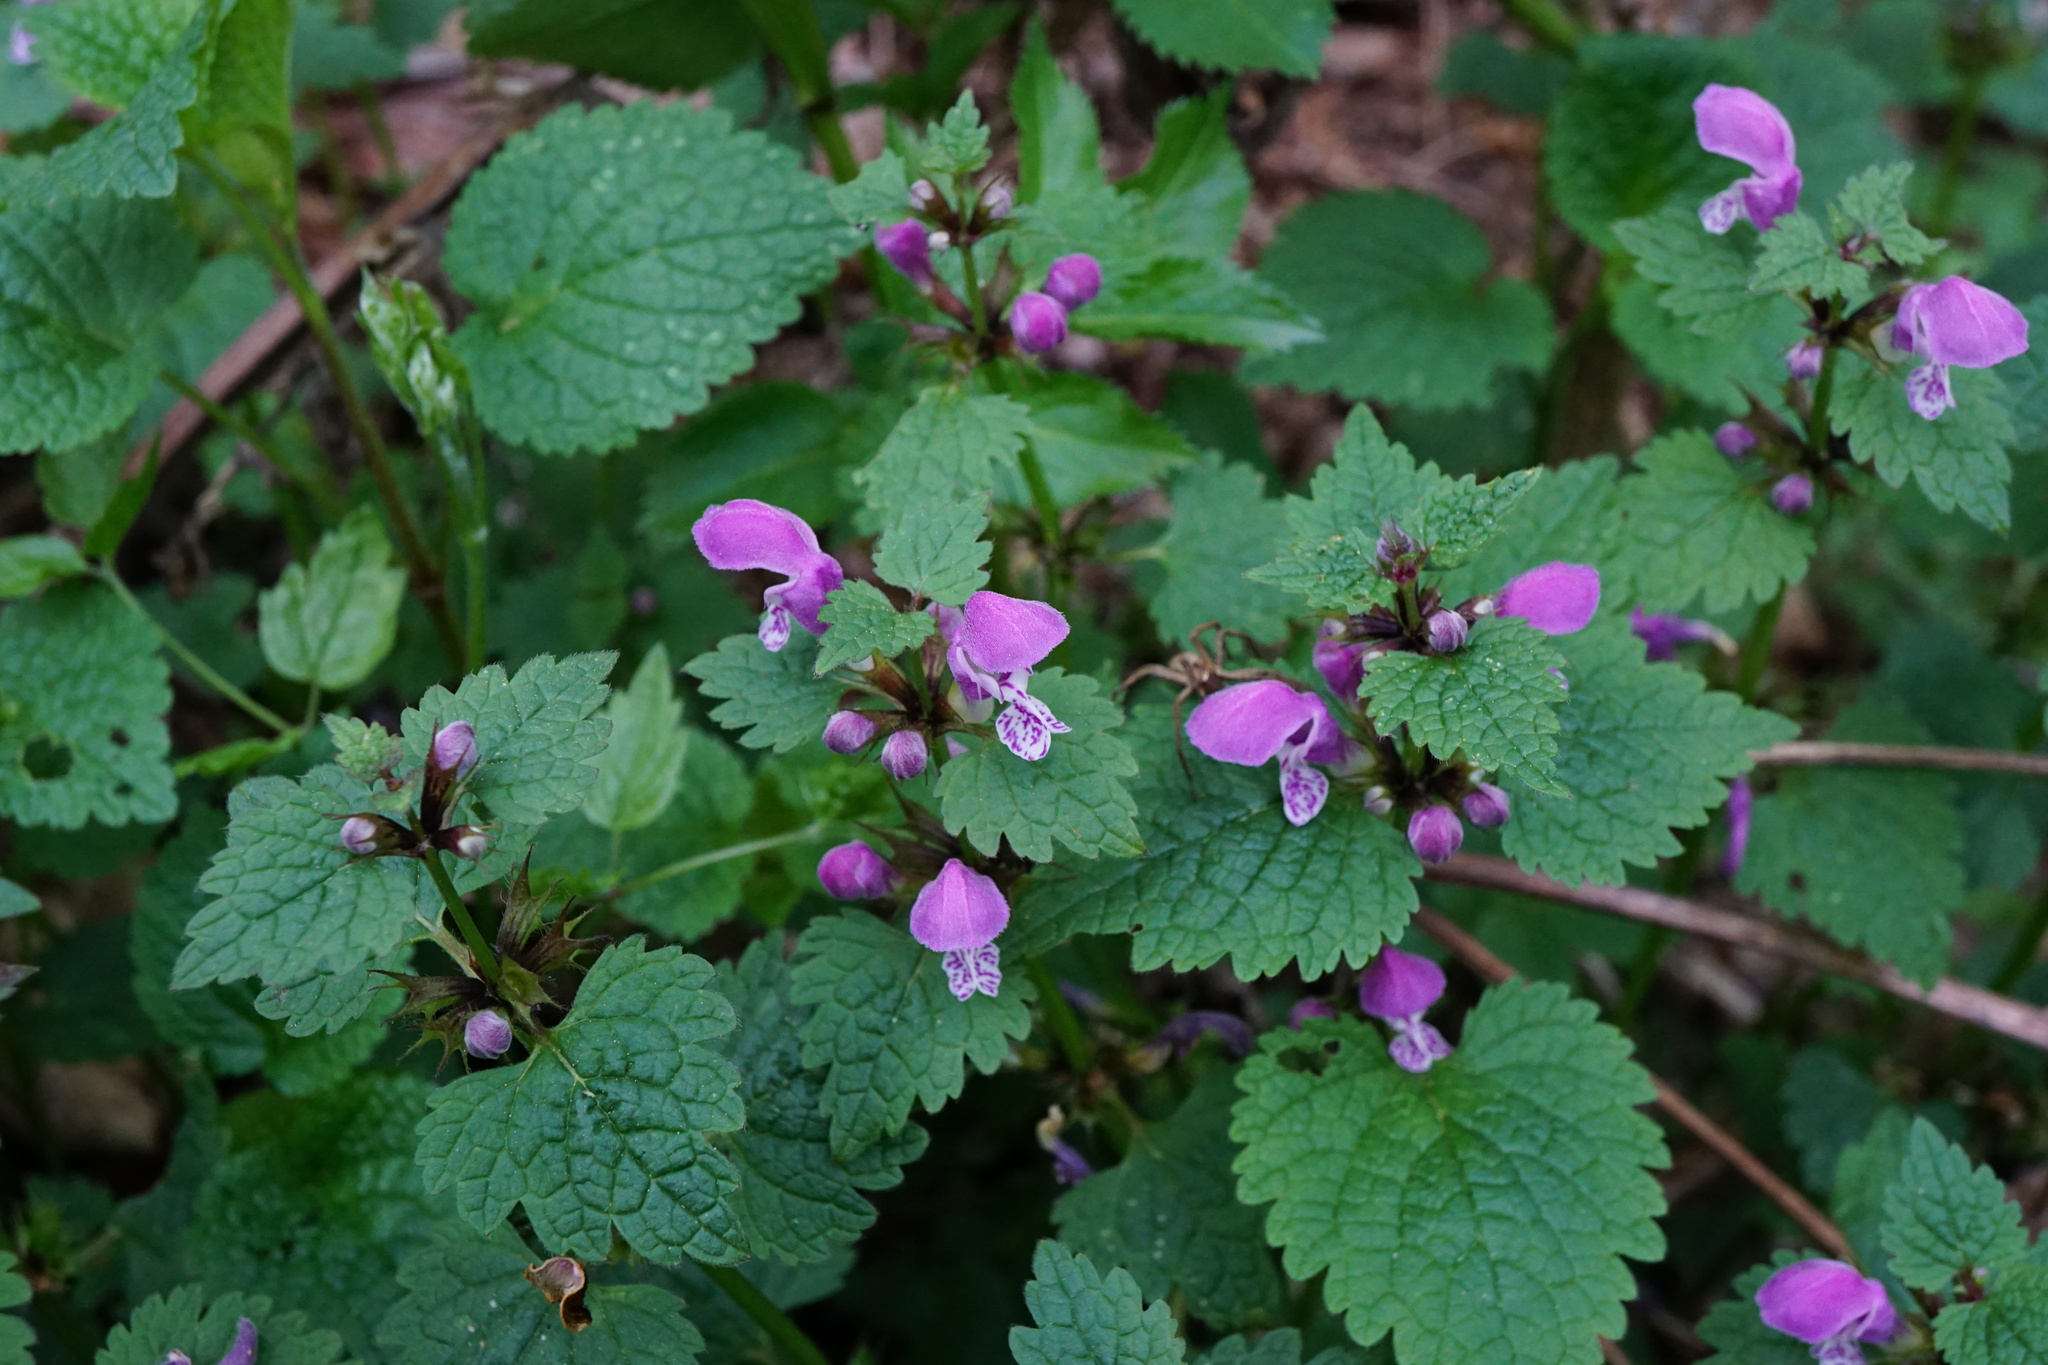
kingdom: Plantae
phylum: Tracheophyta
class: Magnoliopsida
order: Lamiales
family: Lamiaceae
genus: Lamium
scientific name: Lamium maculatum
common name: Spotted dead-nettle
